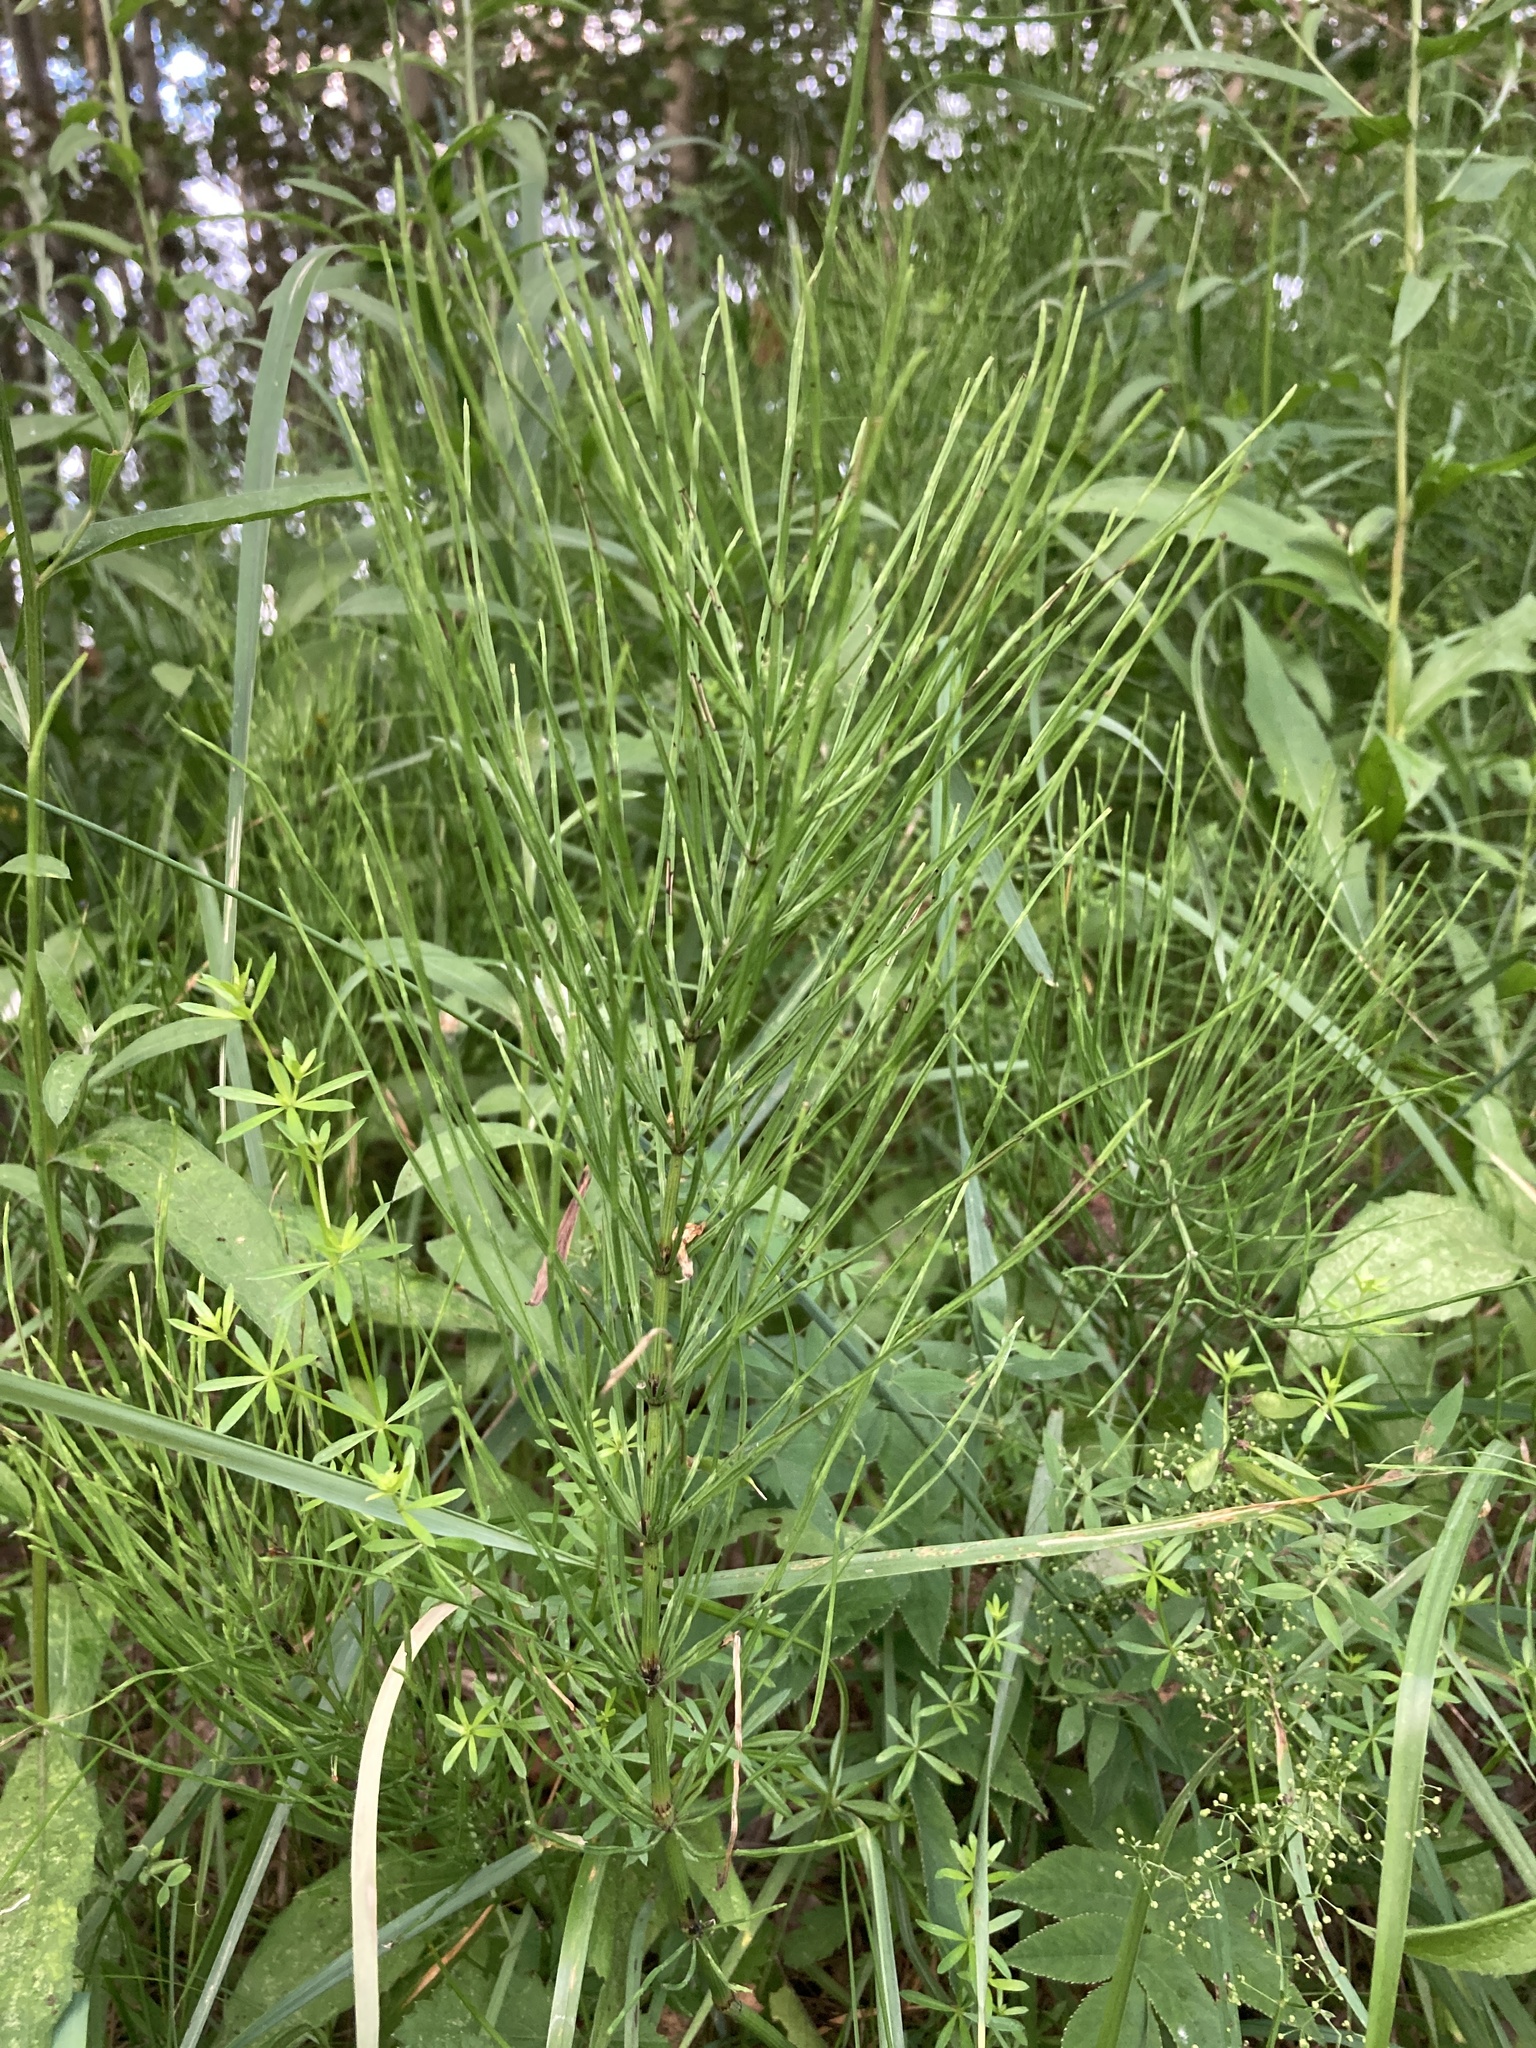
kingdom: Plantae
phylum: Tracheophyta
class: Polypodiopsida
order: Equisetales
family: Equisetaceae
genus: Equisetum
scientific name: Equisetum arvense
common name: Field horsetail
